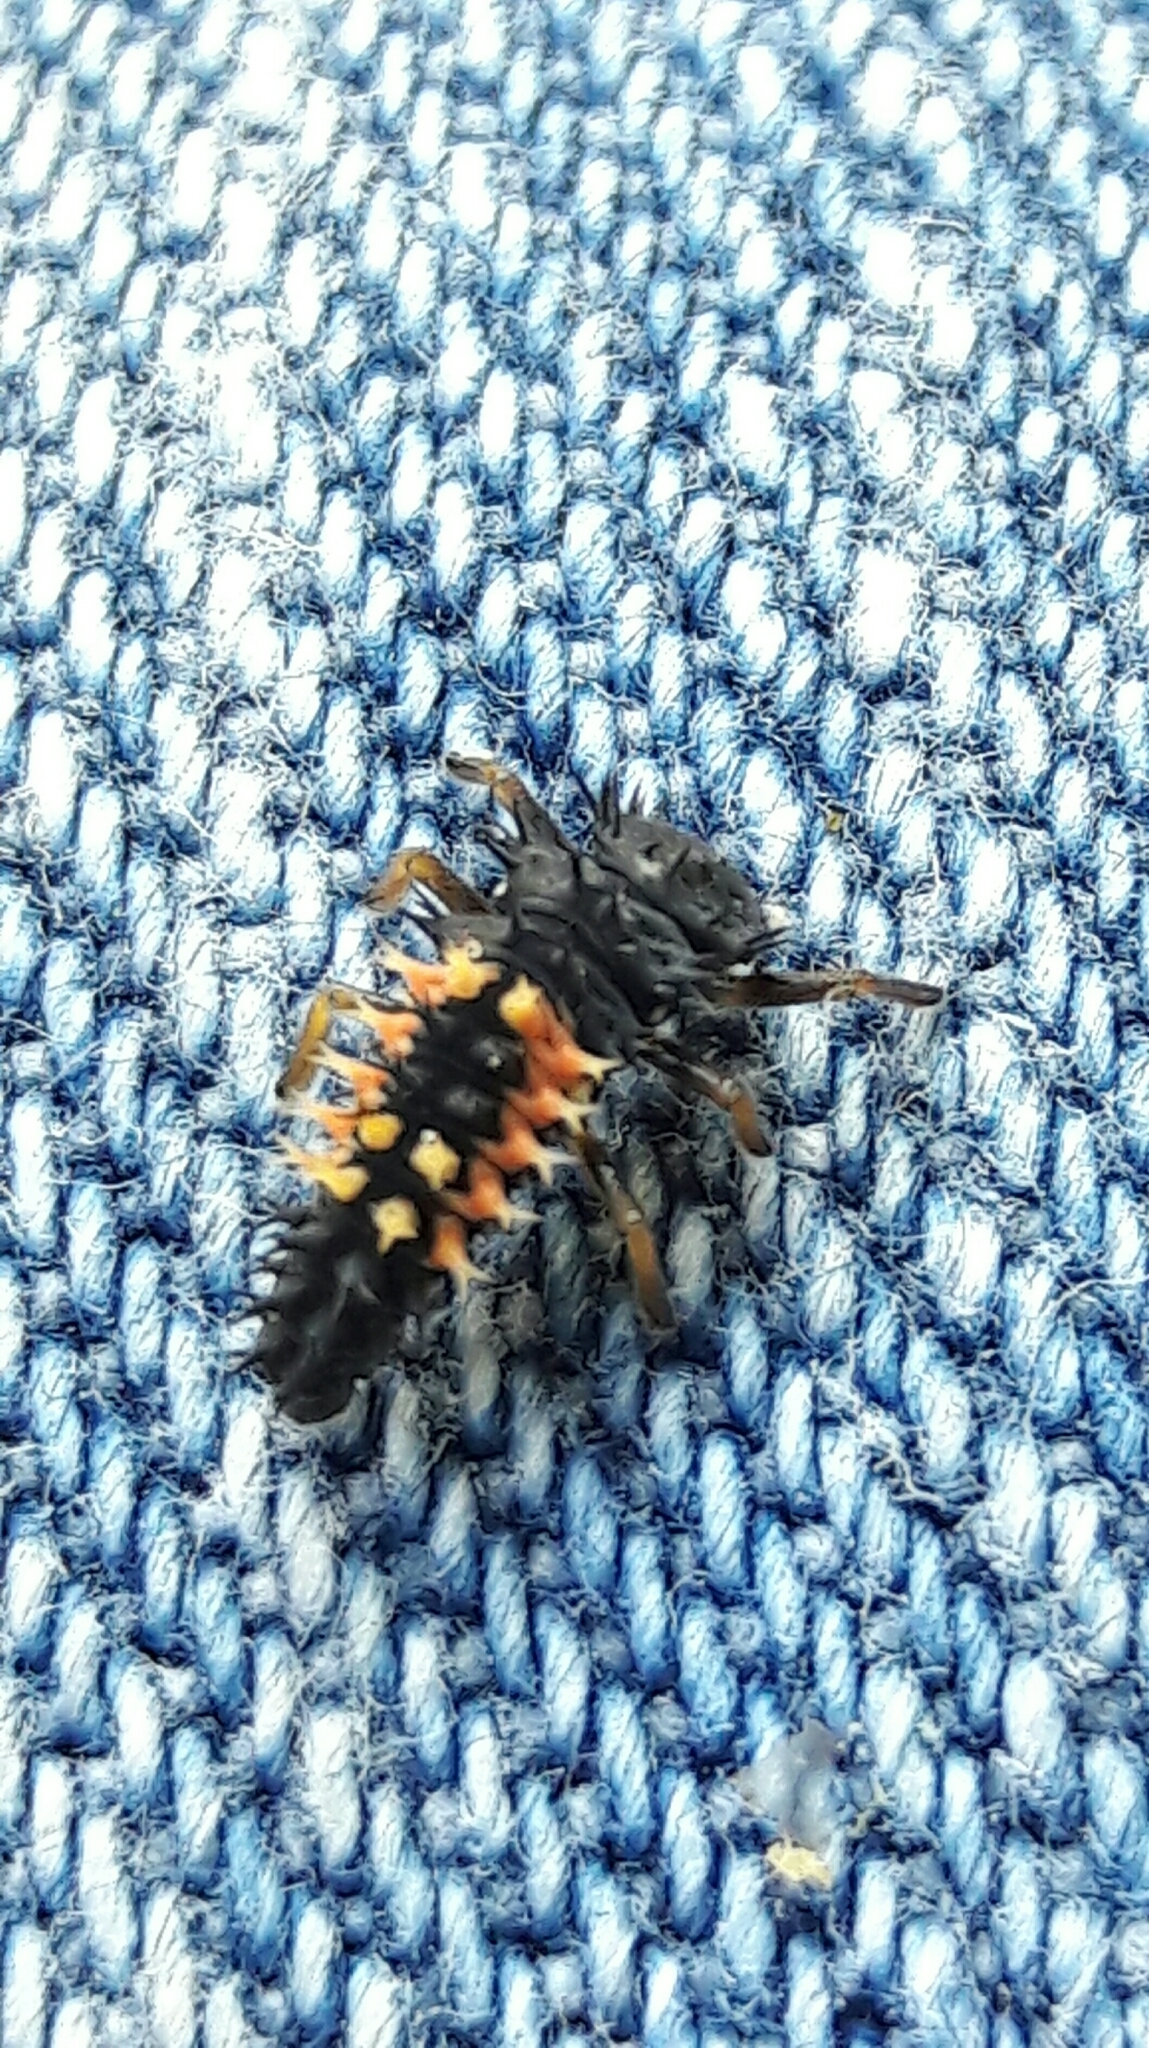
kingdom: Animalia
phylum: Arthropoda
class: Insecta
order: Coleoptera
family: Coccinellidae
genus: Harmonia
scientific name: Harmonia axyridis
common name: Harlequin ladybird
